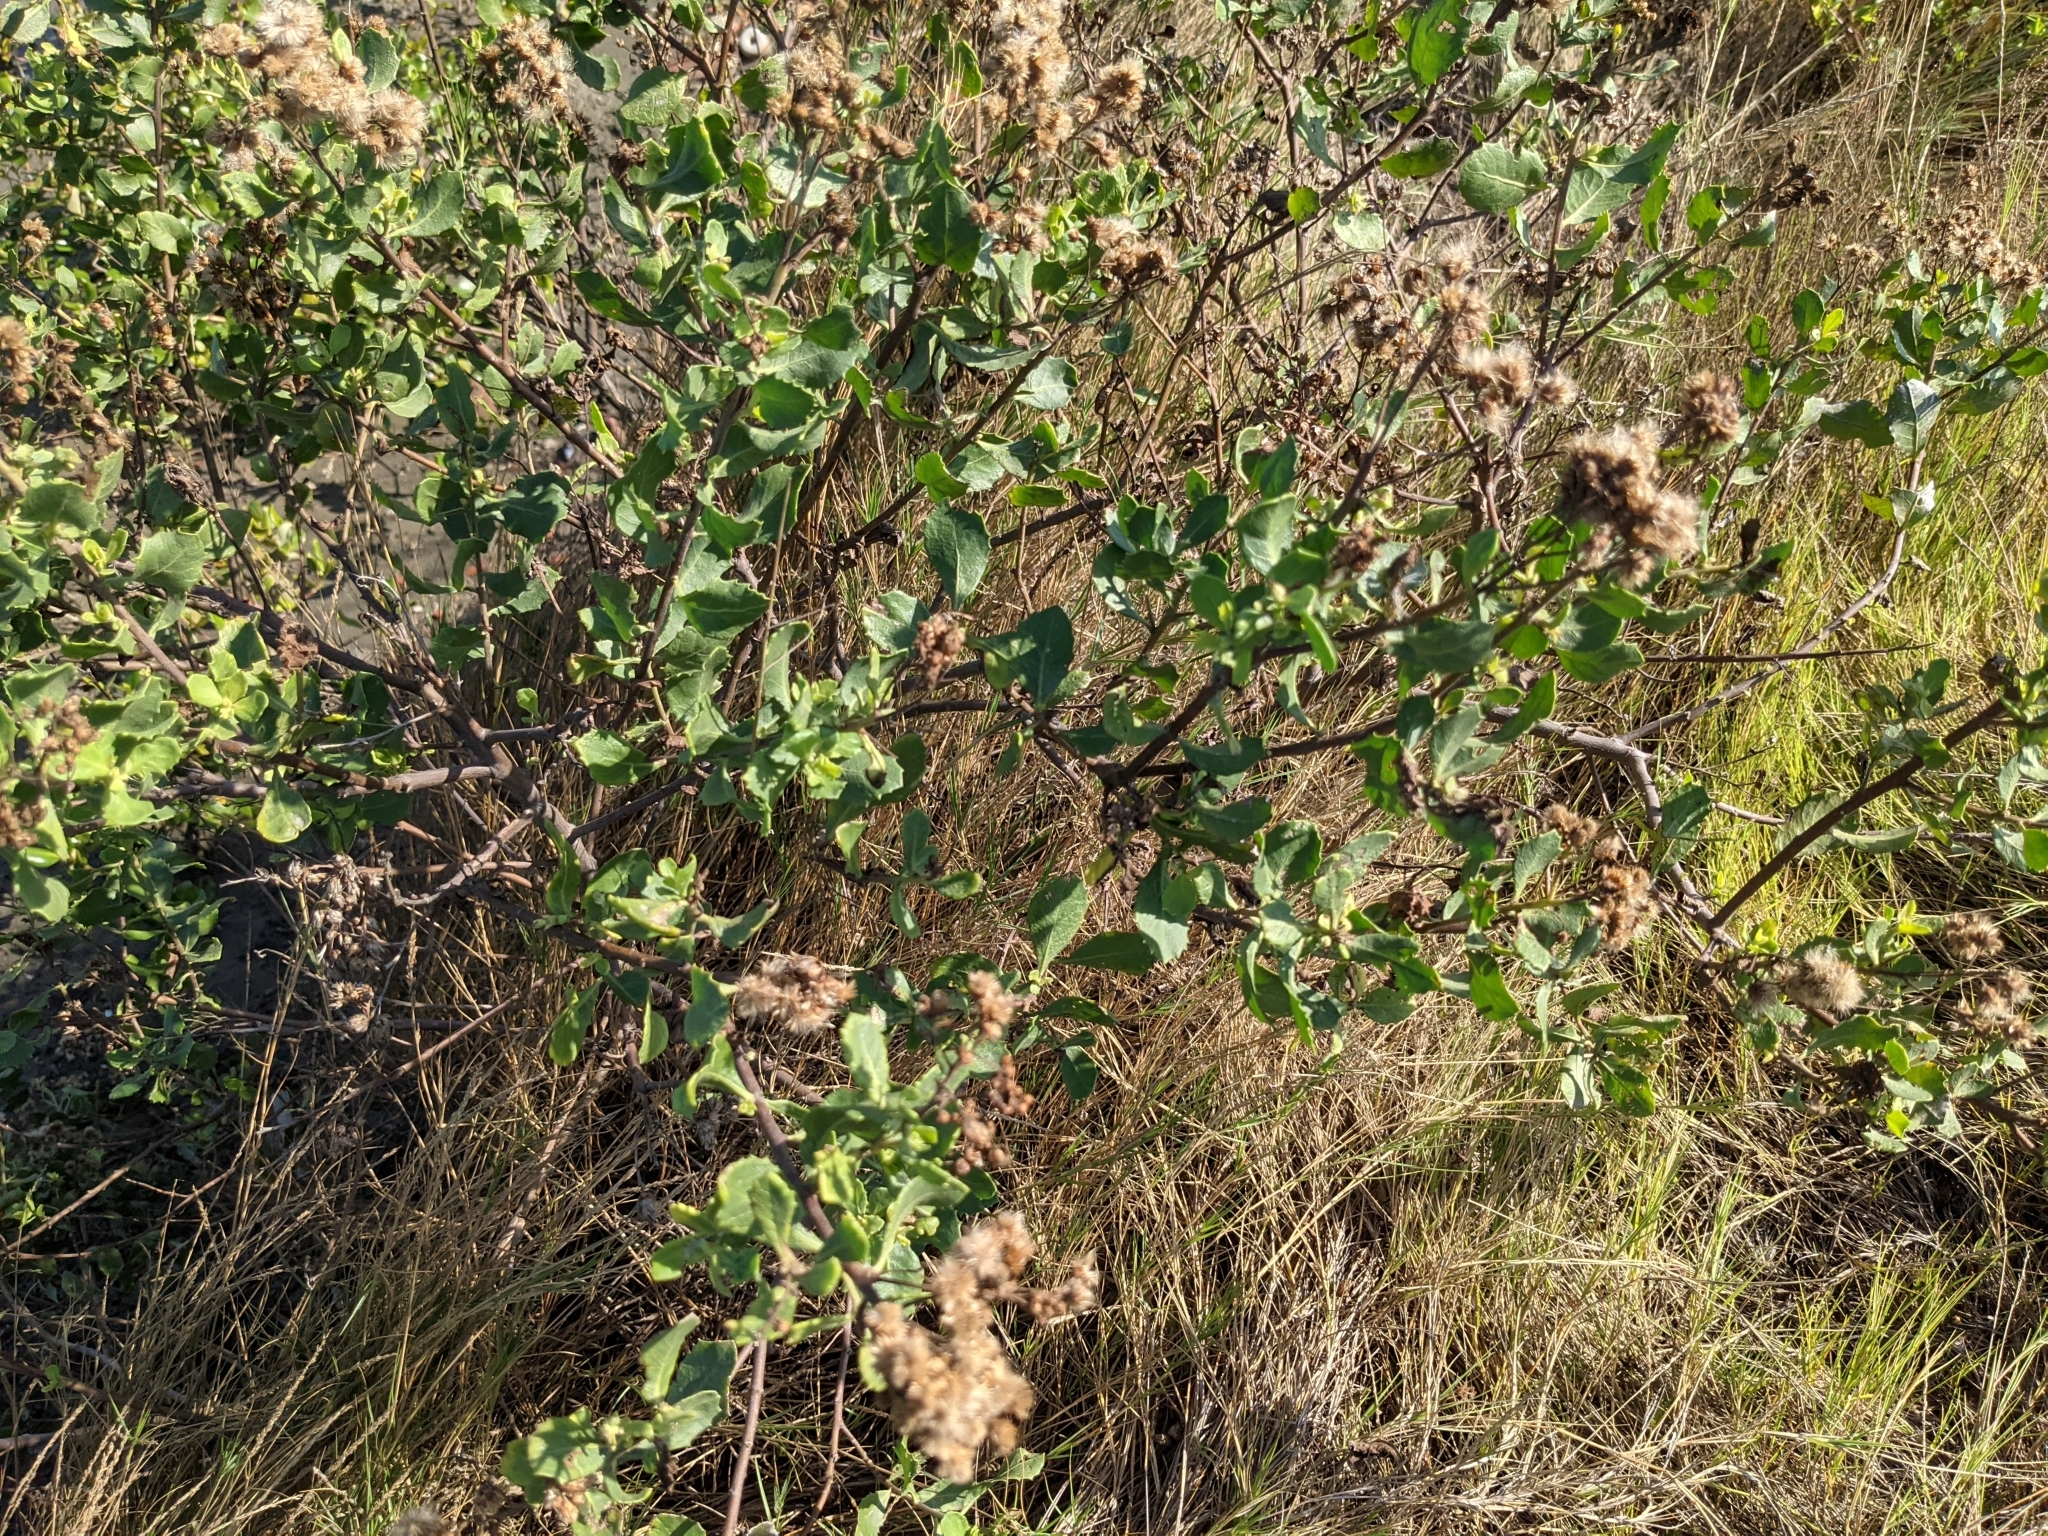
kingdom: Plantae
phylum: Tracheophyta
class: Magnoliopsida
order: Asterales
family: Asteraceae
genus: Pluchea
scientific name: Pluchea indica
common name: Indian fleabane
